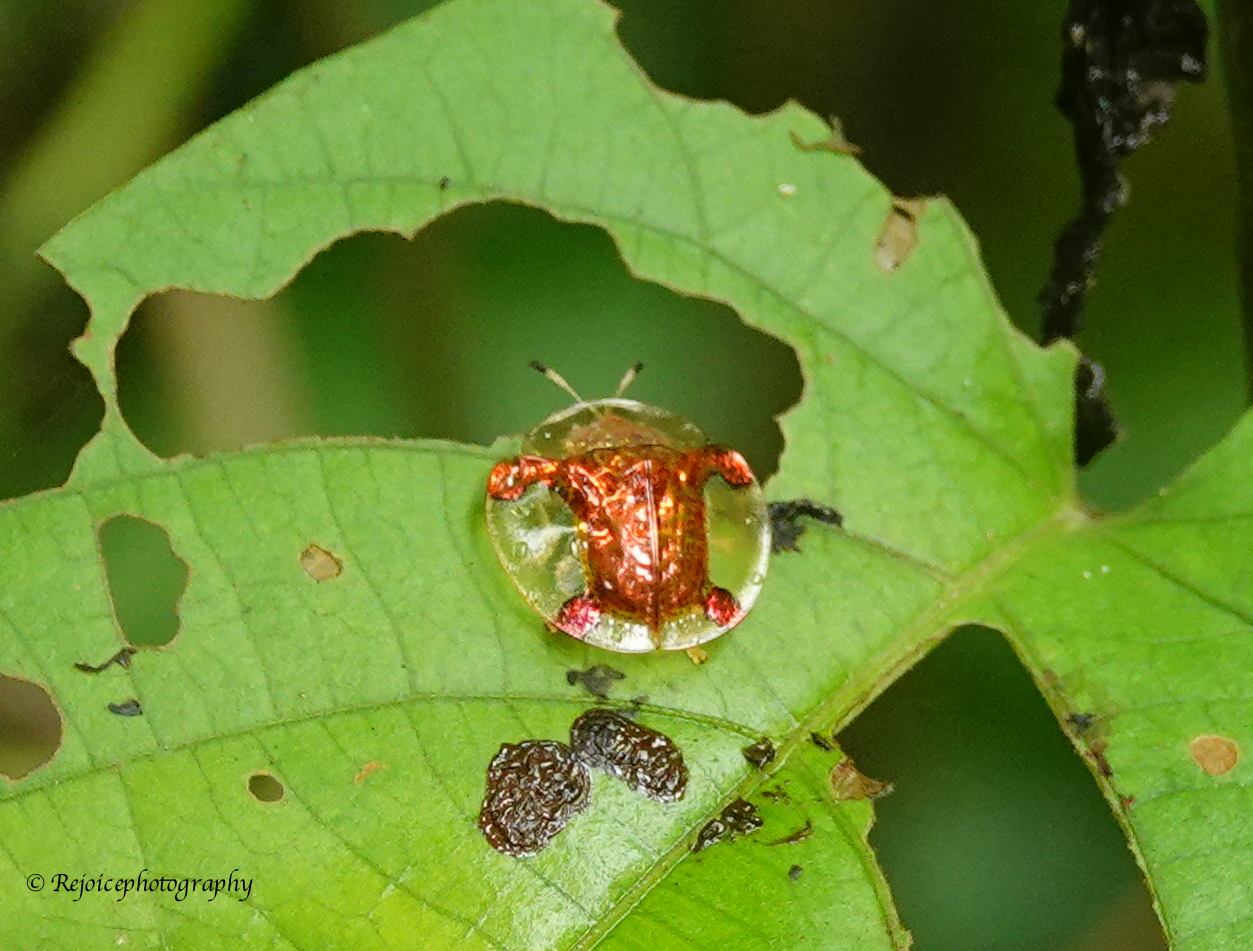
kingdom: Animalia
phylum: Arthropoda
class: Insecta
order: Coleoptera
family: Chrysomelidae
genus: Aspidimorpha
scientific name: Aspidimorpha sanctaecrucis
